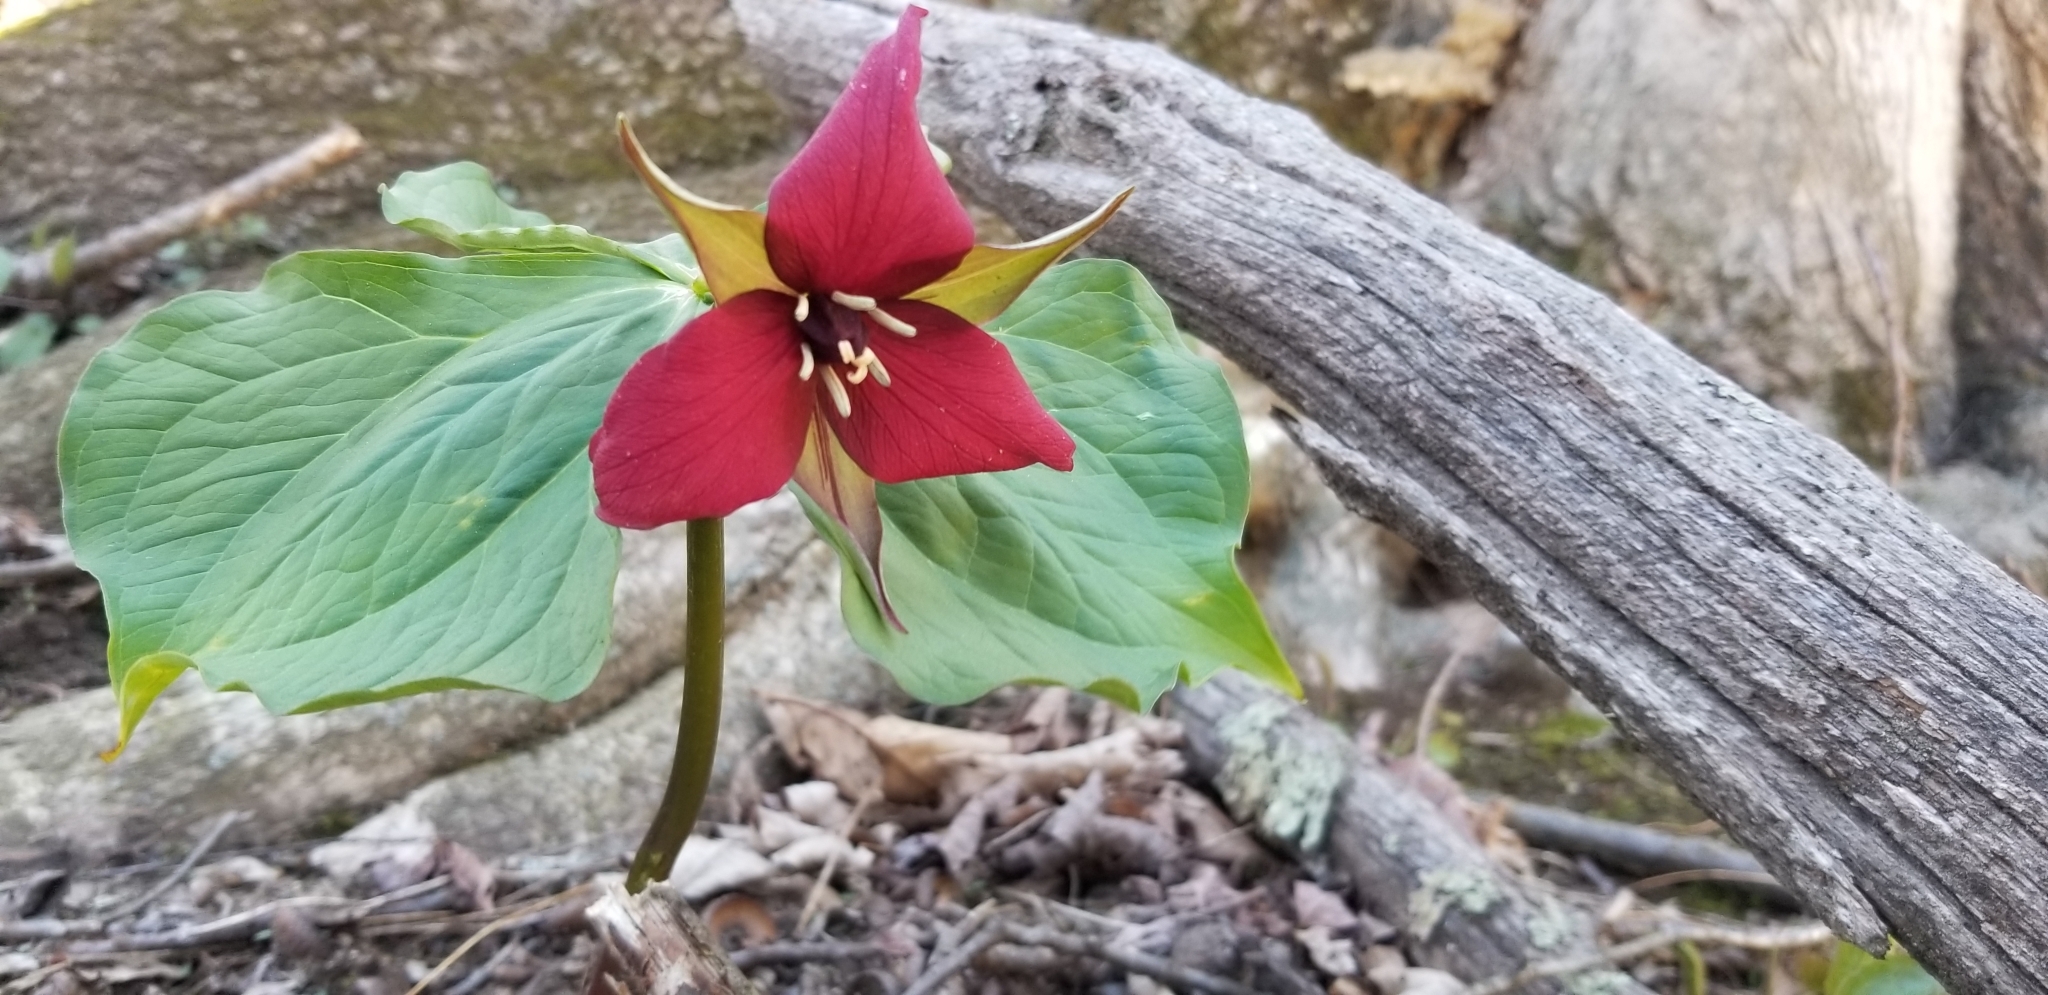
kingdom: Plantae
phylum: Tracheophyta
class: Liliopsida
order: Liliales
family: Melanthiaceae
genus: Trillium
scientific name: Trillium erectum
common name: Purple trillium
